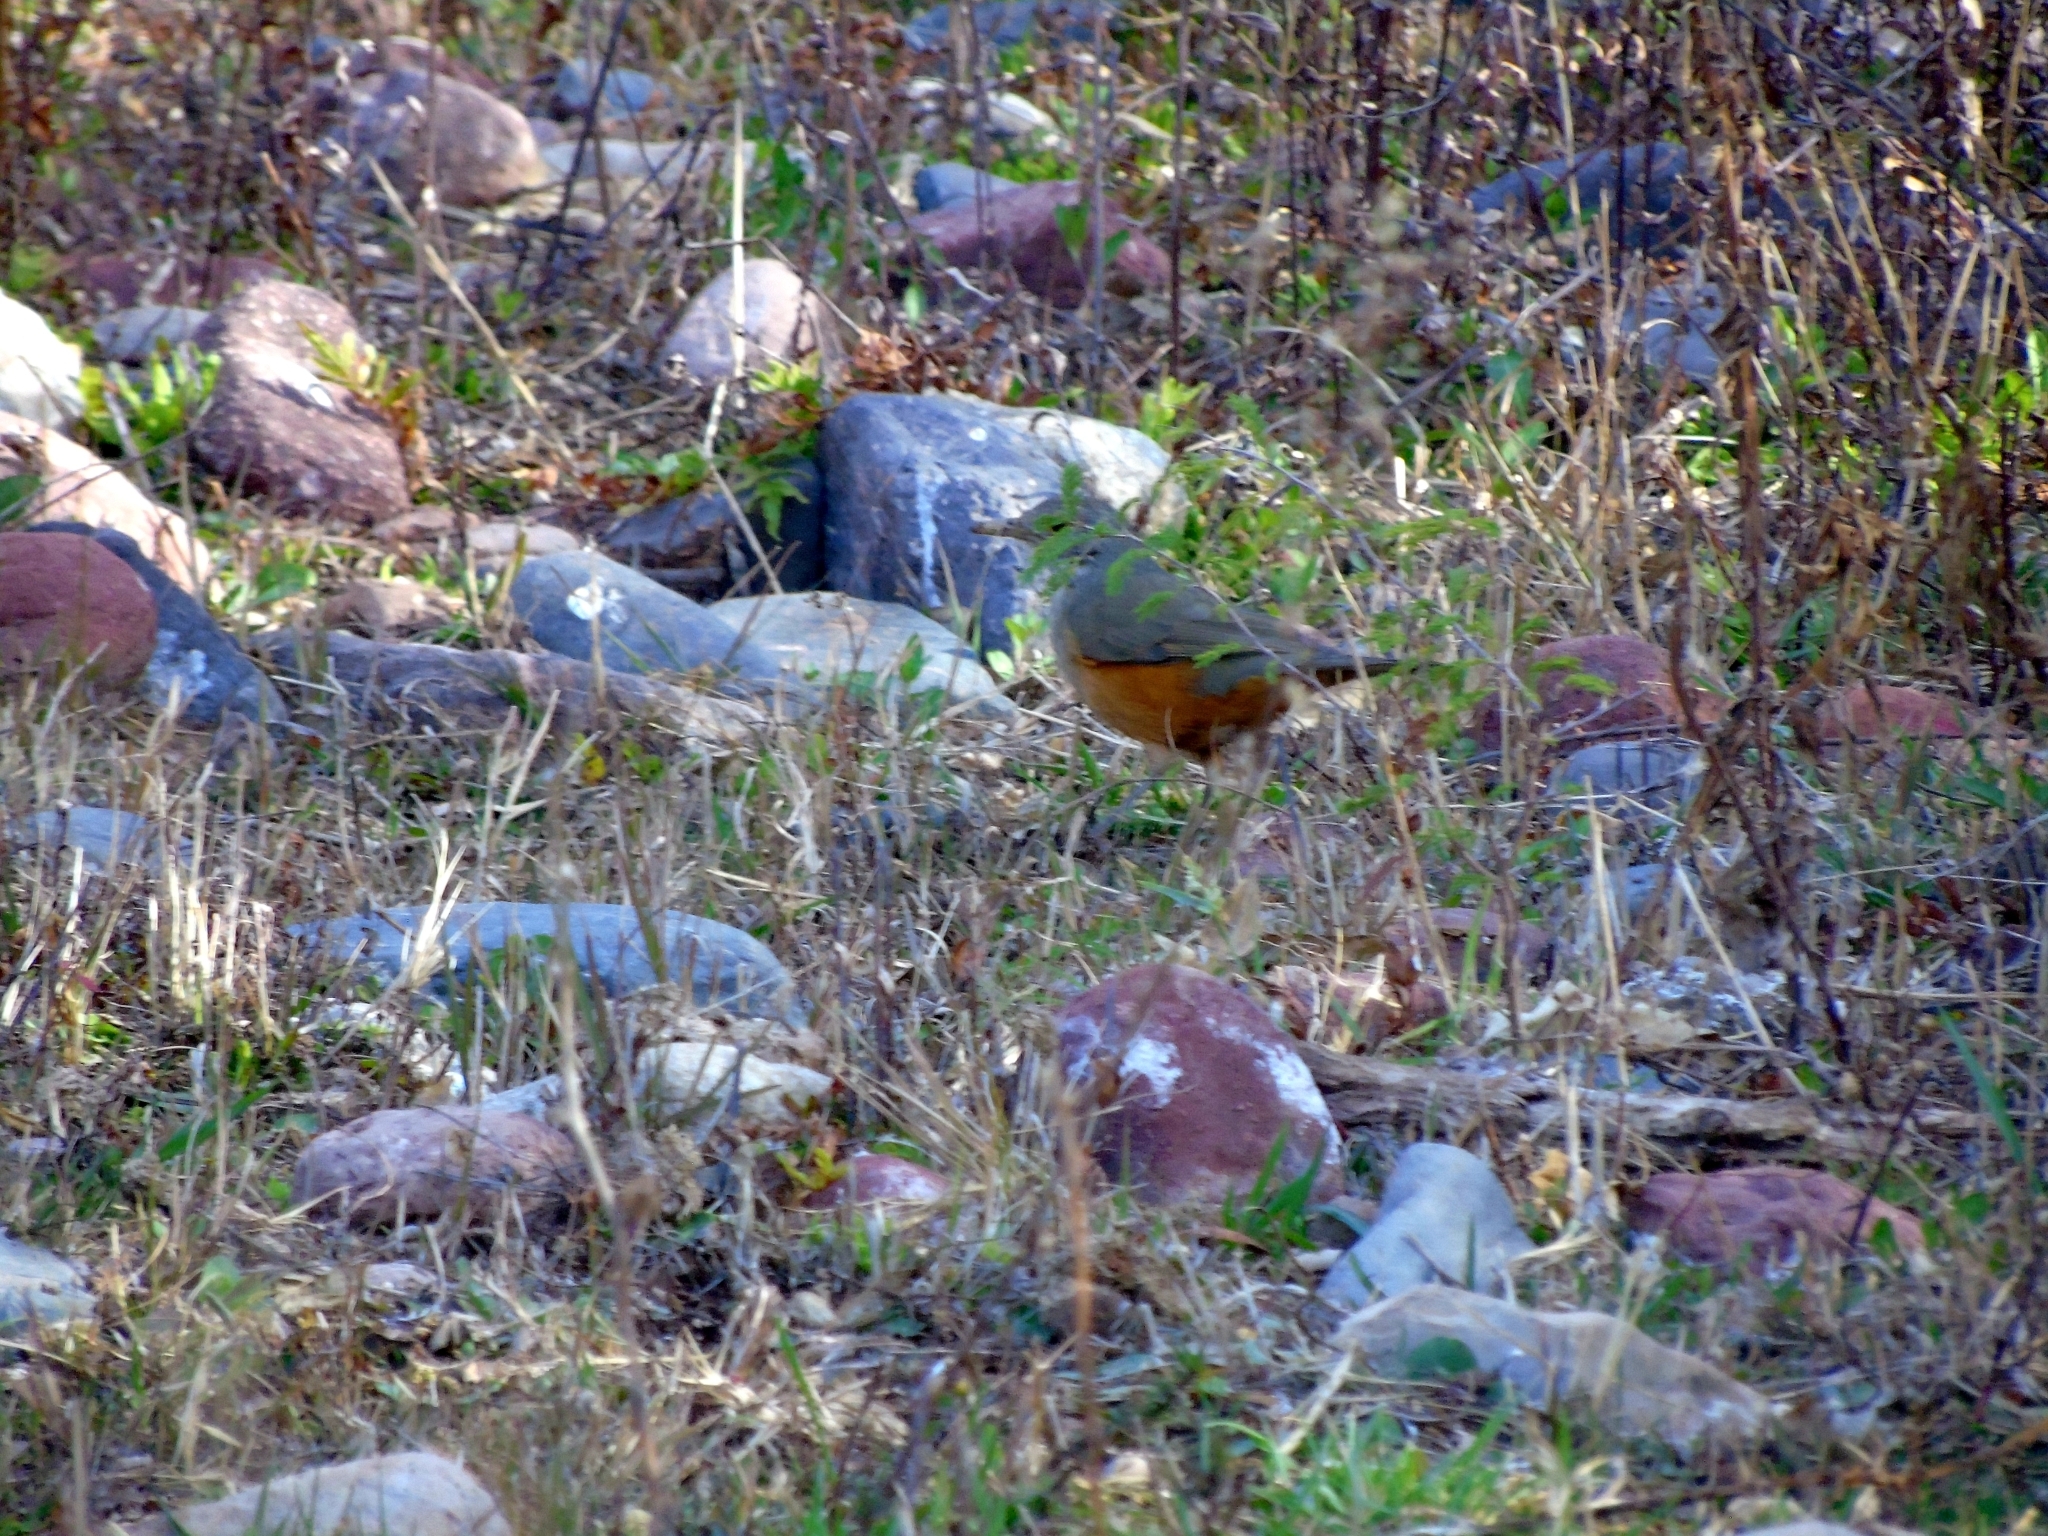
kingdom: Animalia
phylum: Chordata
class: Aves
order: Passeriformes
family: Turdidae
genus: Turdus
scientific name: Turdus rufiventris
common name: Rufous-bellied thrush
